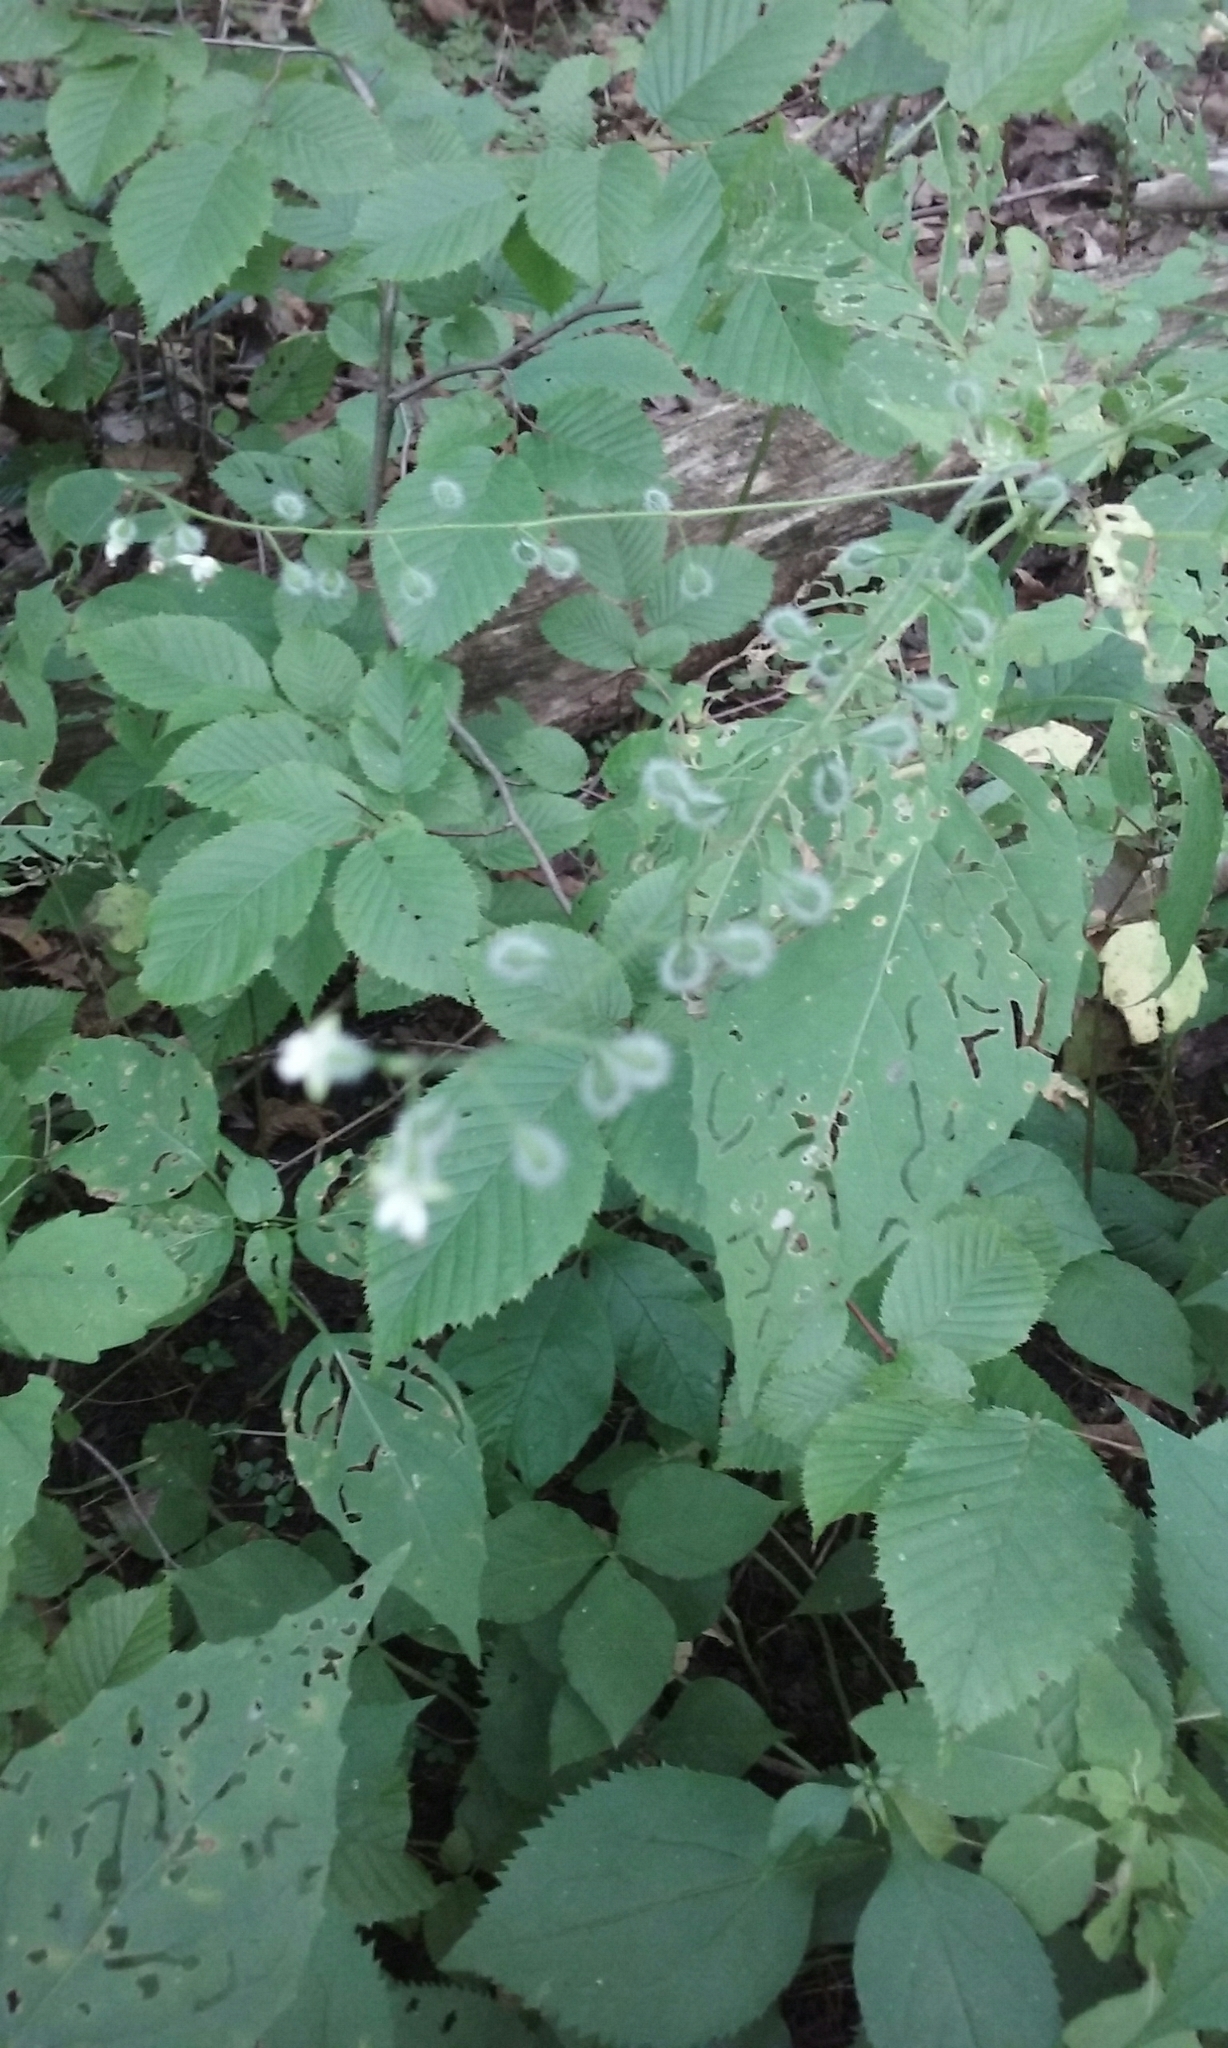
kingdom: Plantae
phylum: Tracheophyta
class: Magnoliopsida
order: Myrtales
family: Onagraceae
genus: Circaea
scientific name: Circaea canadensis
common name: Broad-leaved enchanter's nightshade
